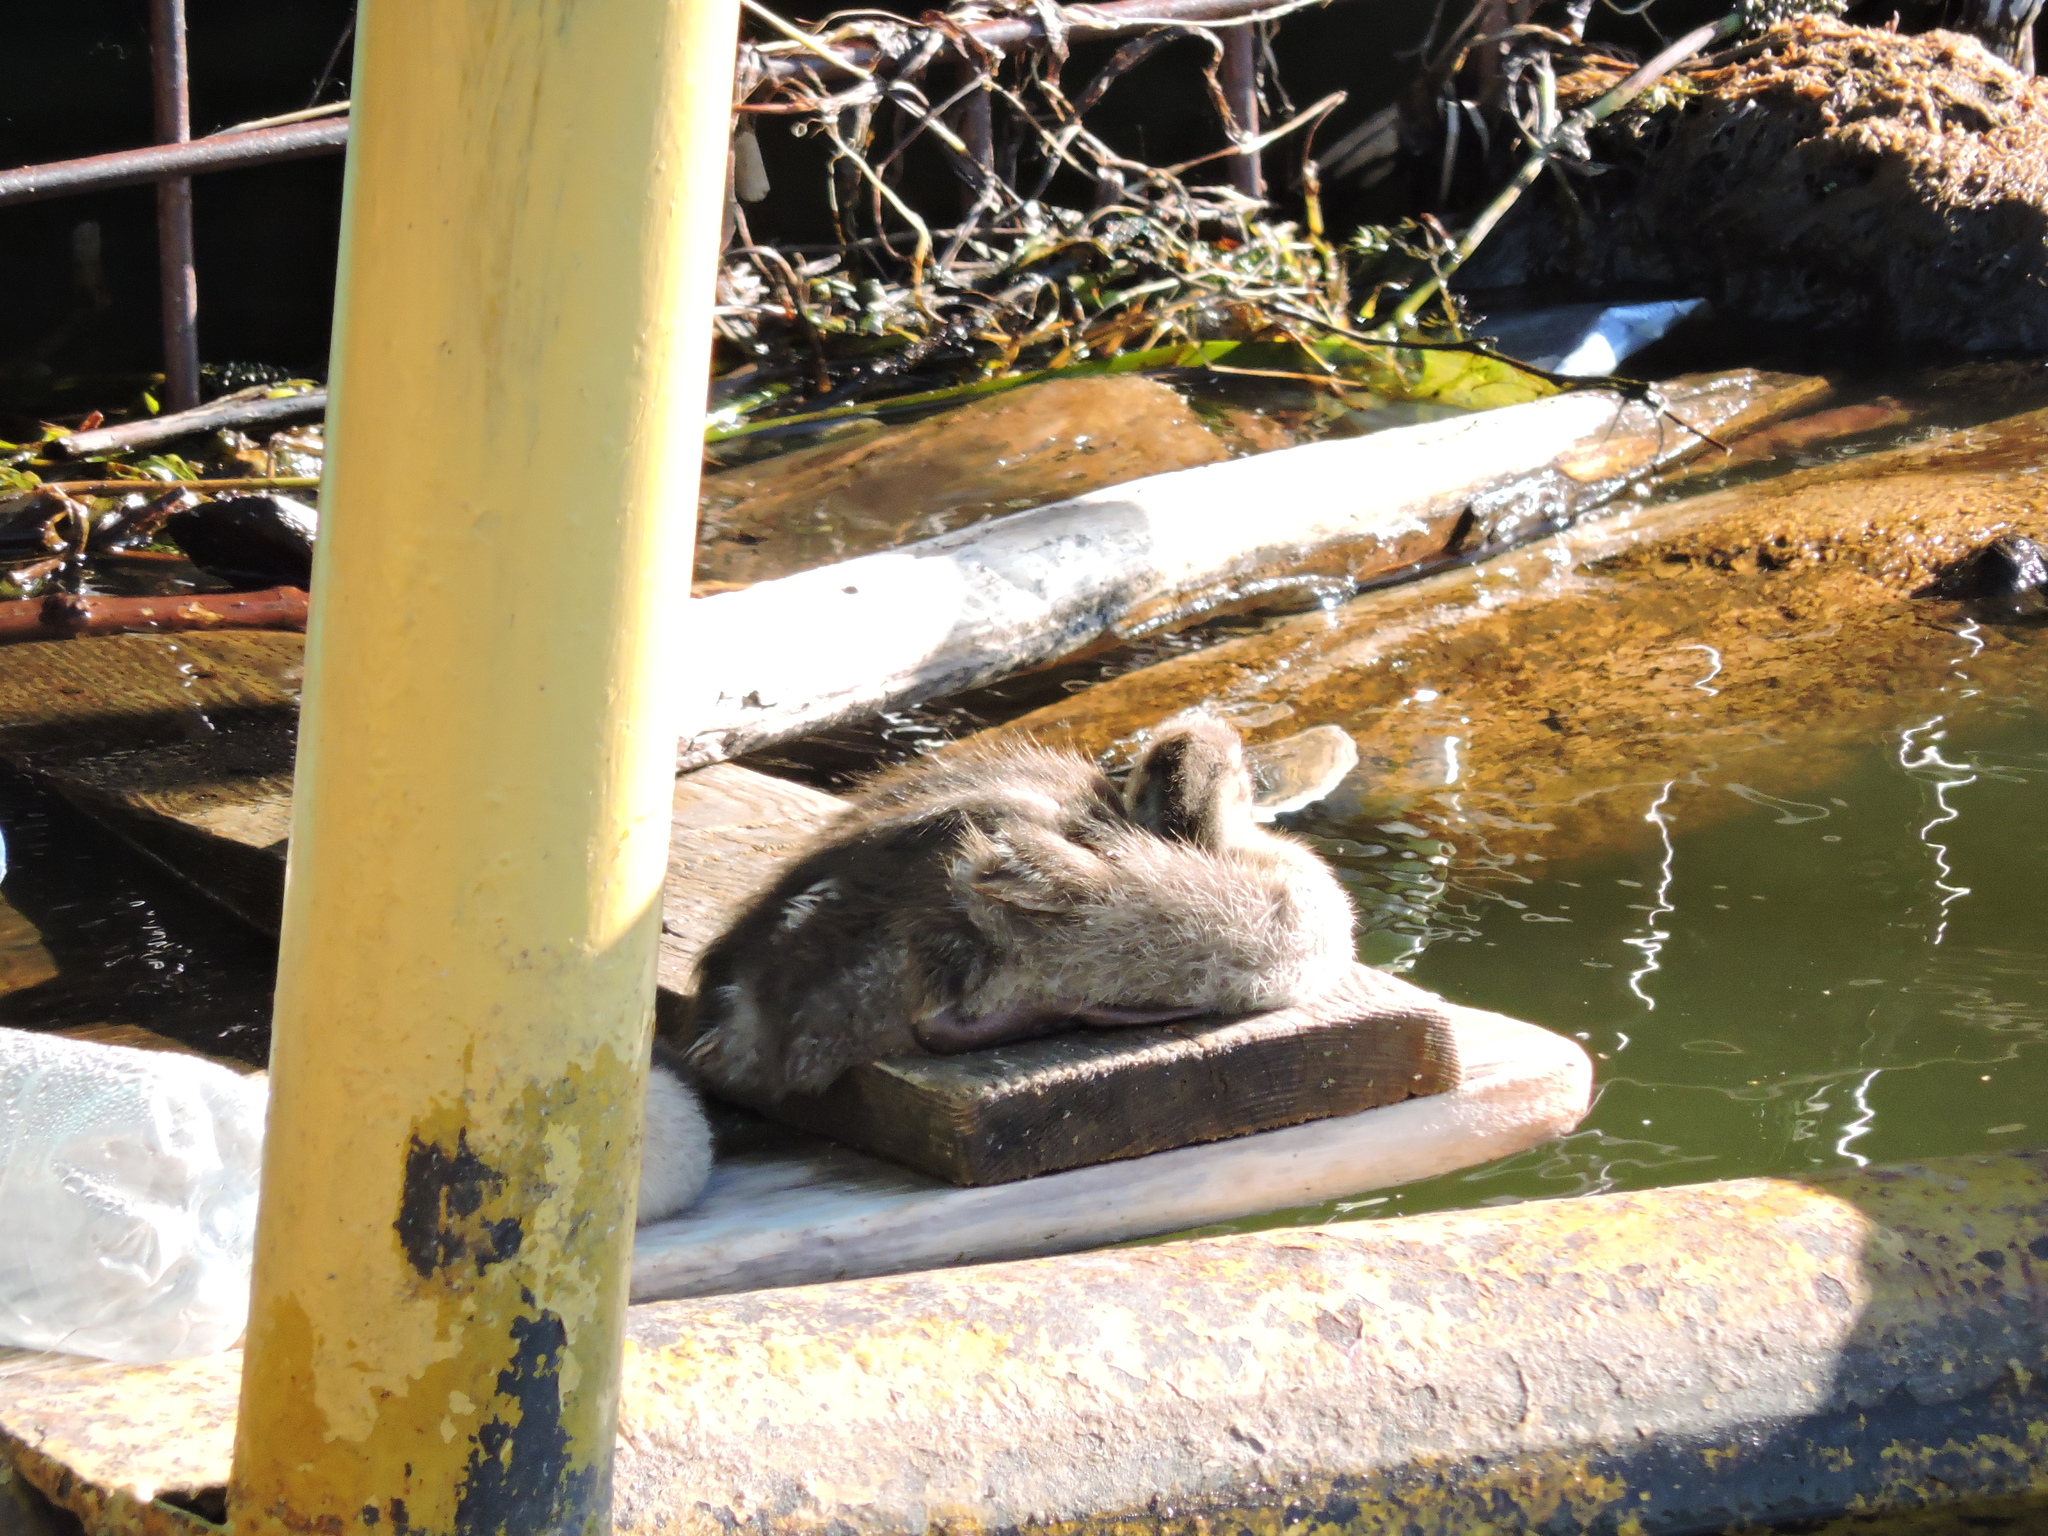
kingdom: Animalia
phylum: Chordata
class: Aves
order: Anseriformes
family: Anatidae
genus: Anas
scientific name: Anas platyrhynchos
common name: Mallard
